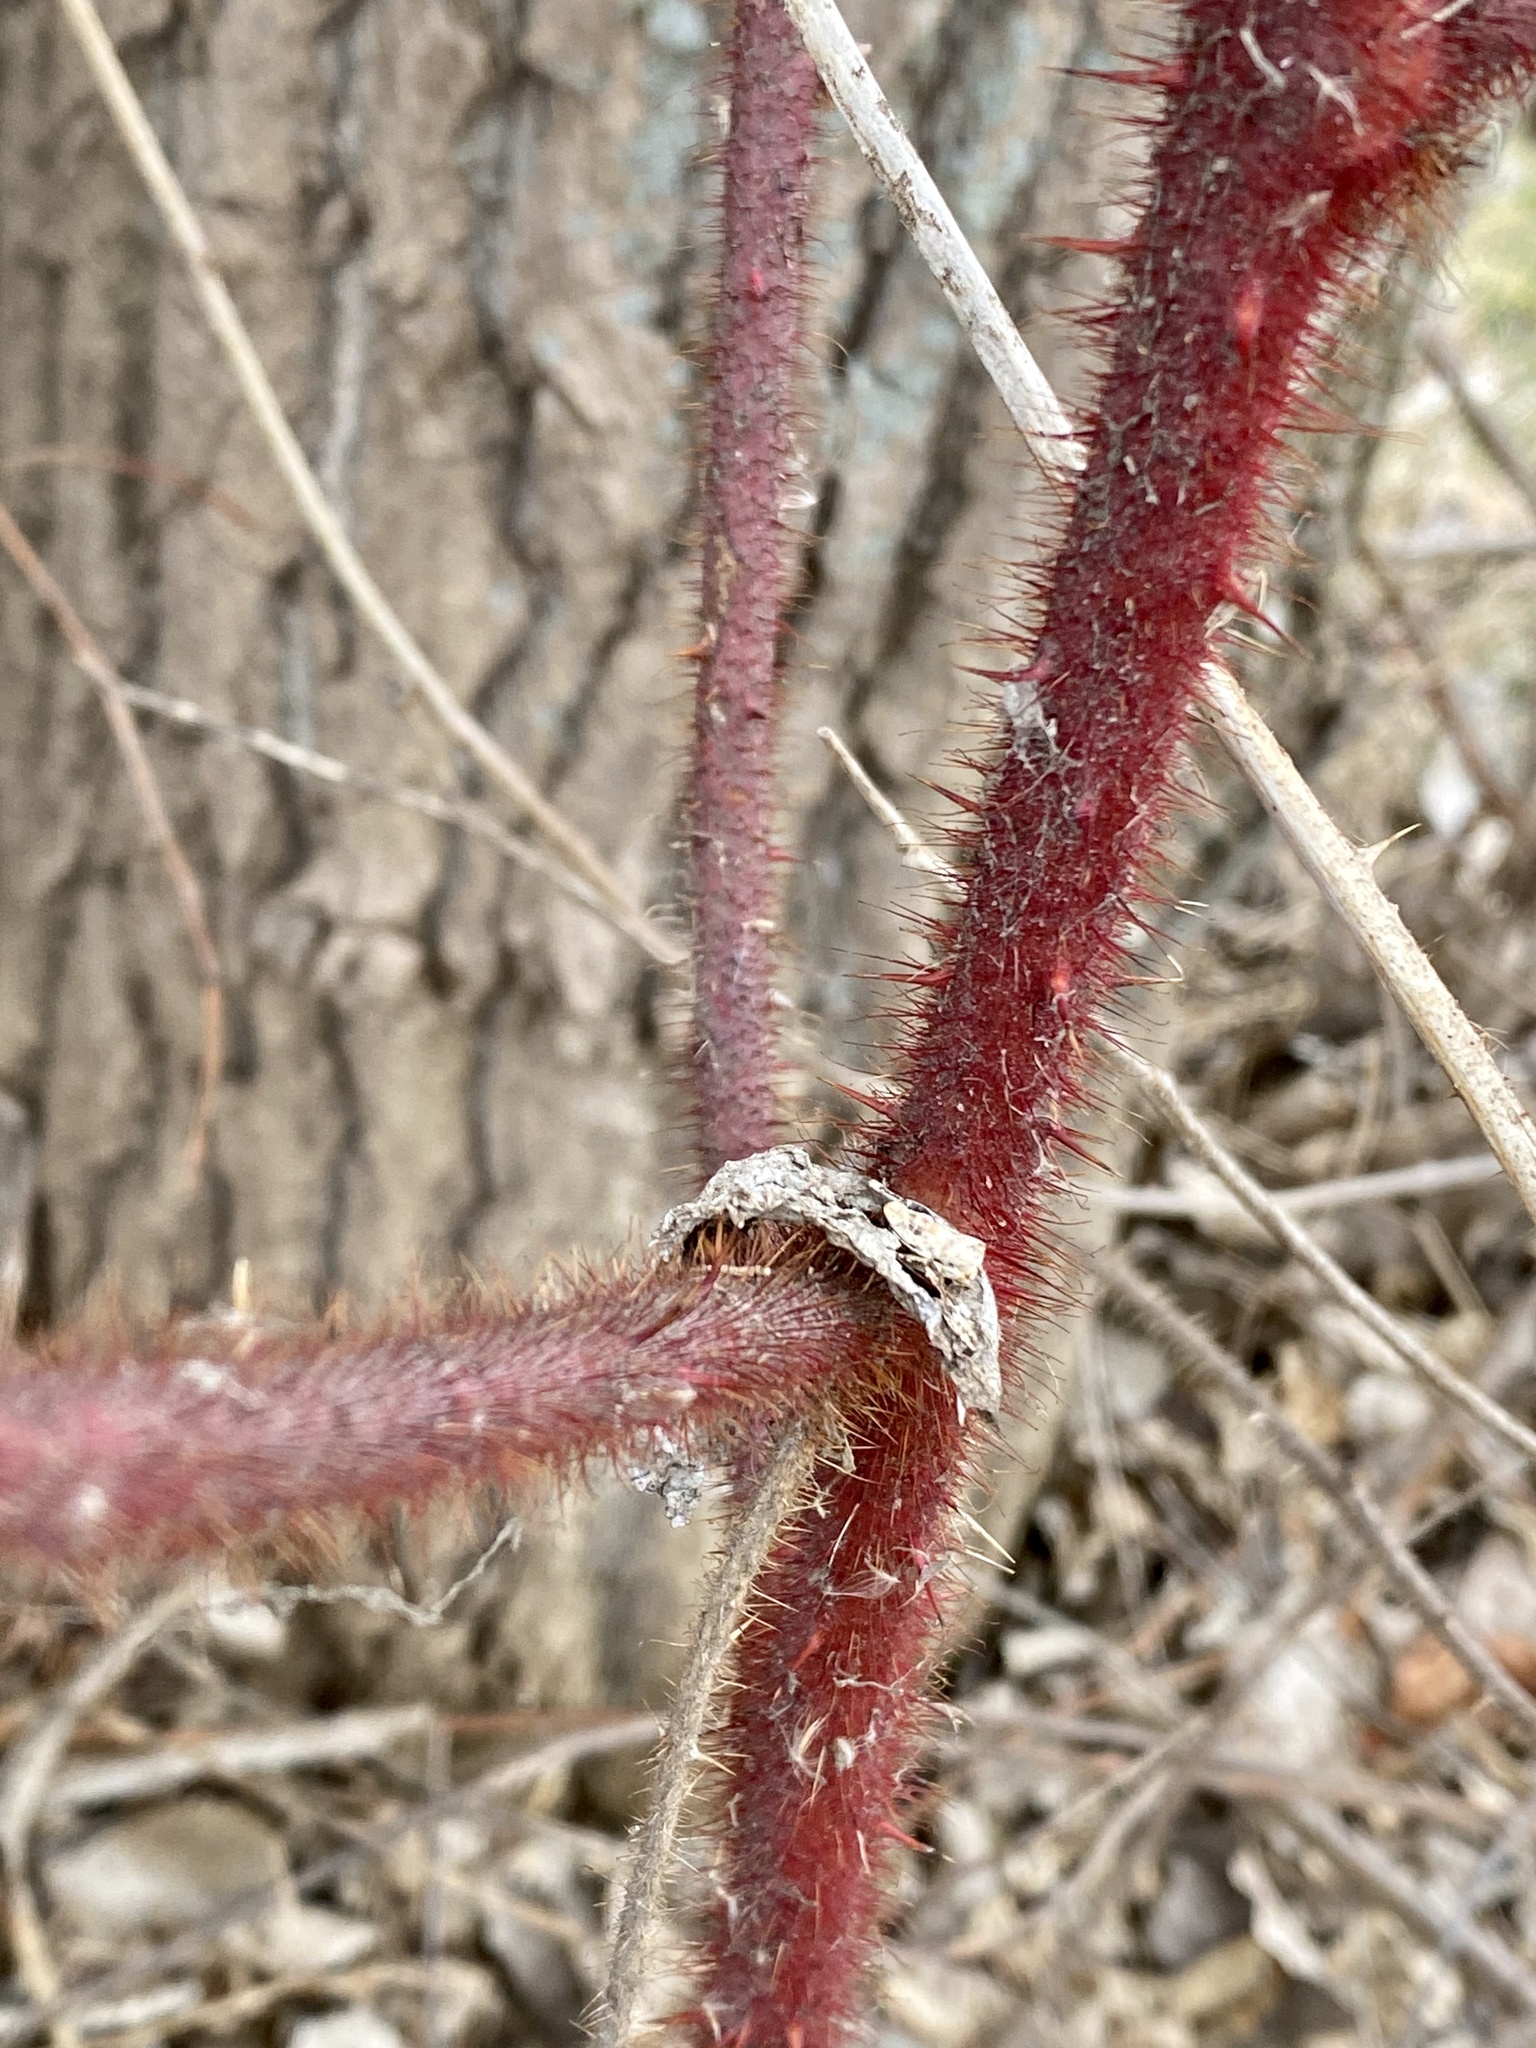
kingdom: Plantae
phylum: Tracheophyta
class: Magnoliopsida
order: Rosales
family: Rosaceae
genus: Rubus
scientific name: Rubus phoenicolasius
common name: Japanese wineberry
